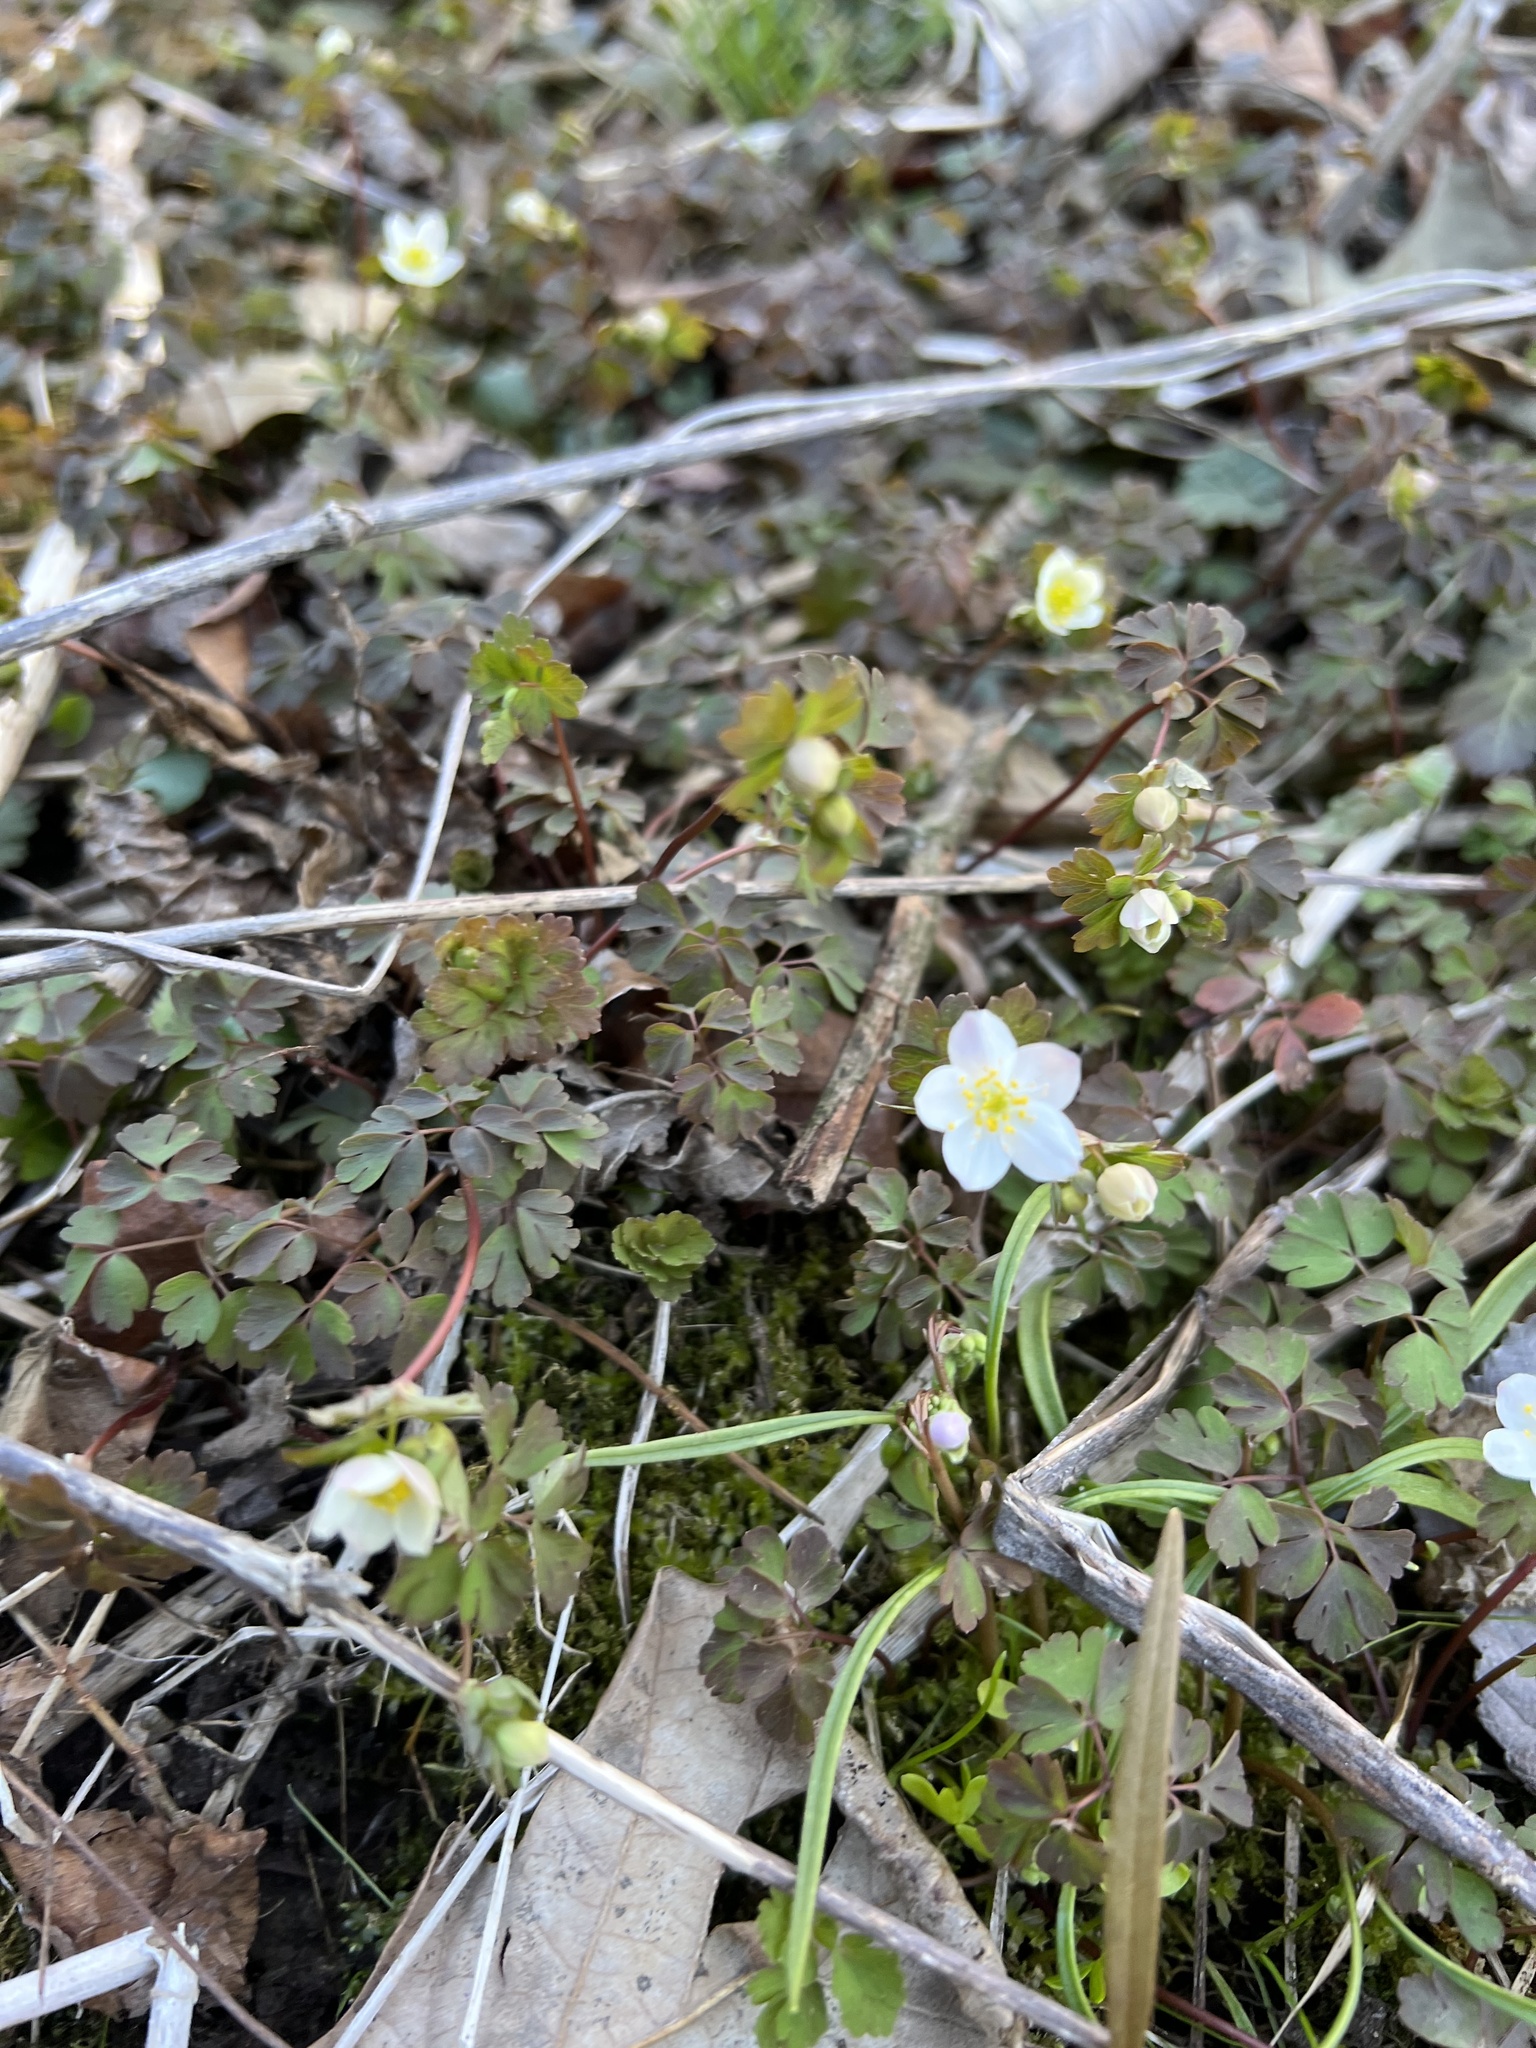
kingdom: Plantae
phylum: Tracheophyta
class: Magnoliopsida
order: Ranunculales
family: Ranunculaceae
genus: Enemion
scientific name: Enemion biternatum
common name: Eastern false rue-anemone
